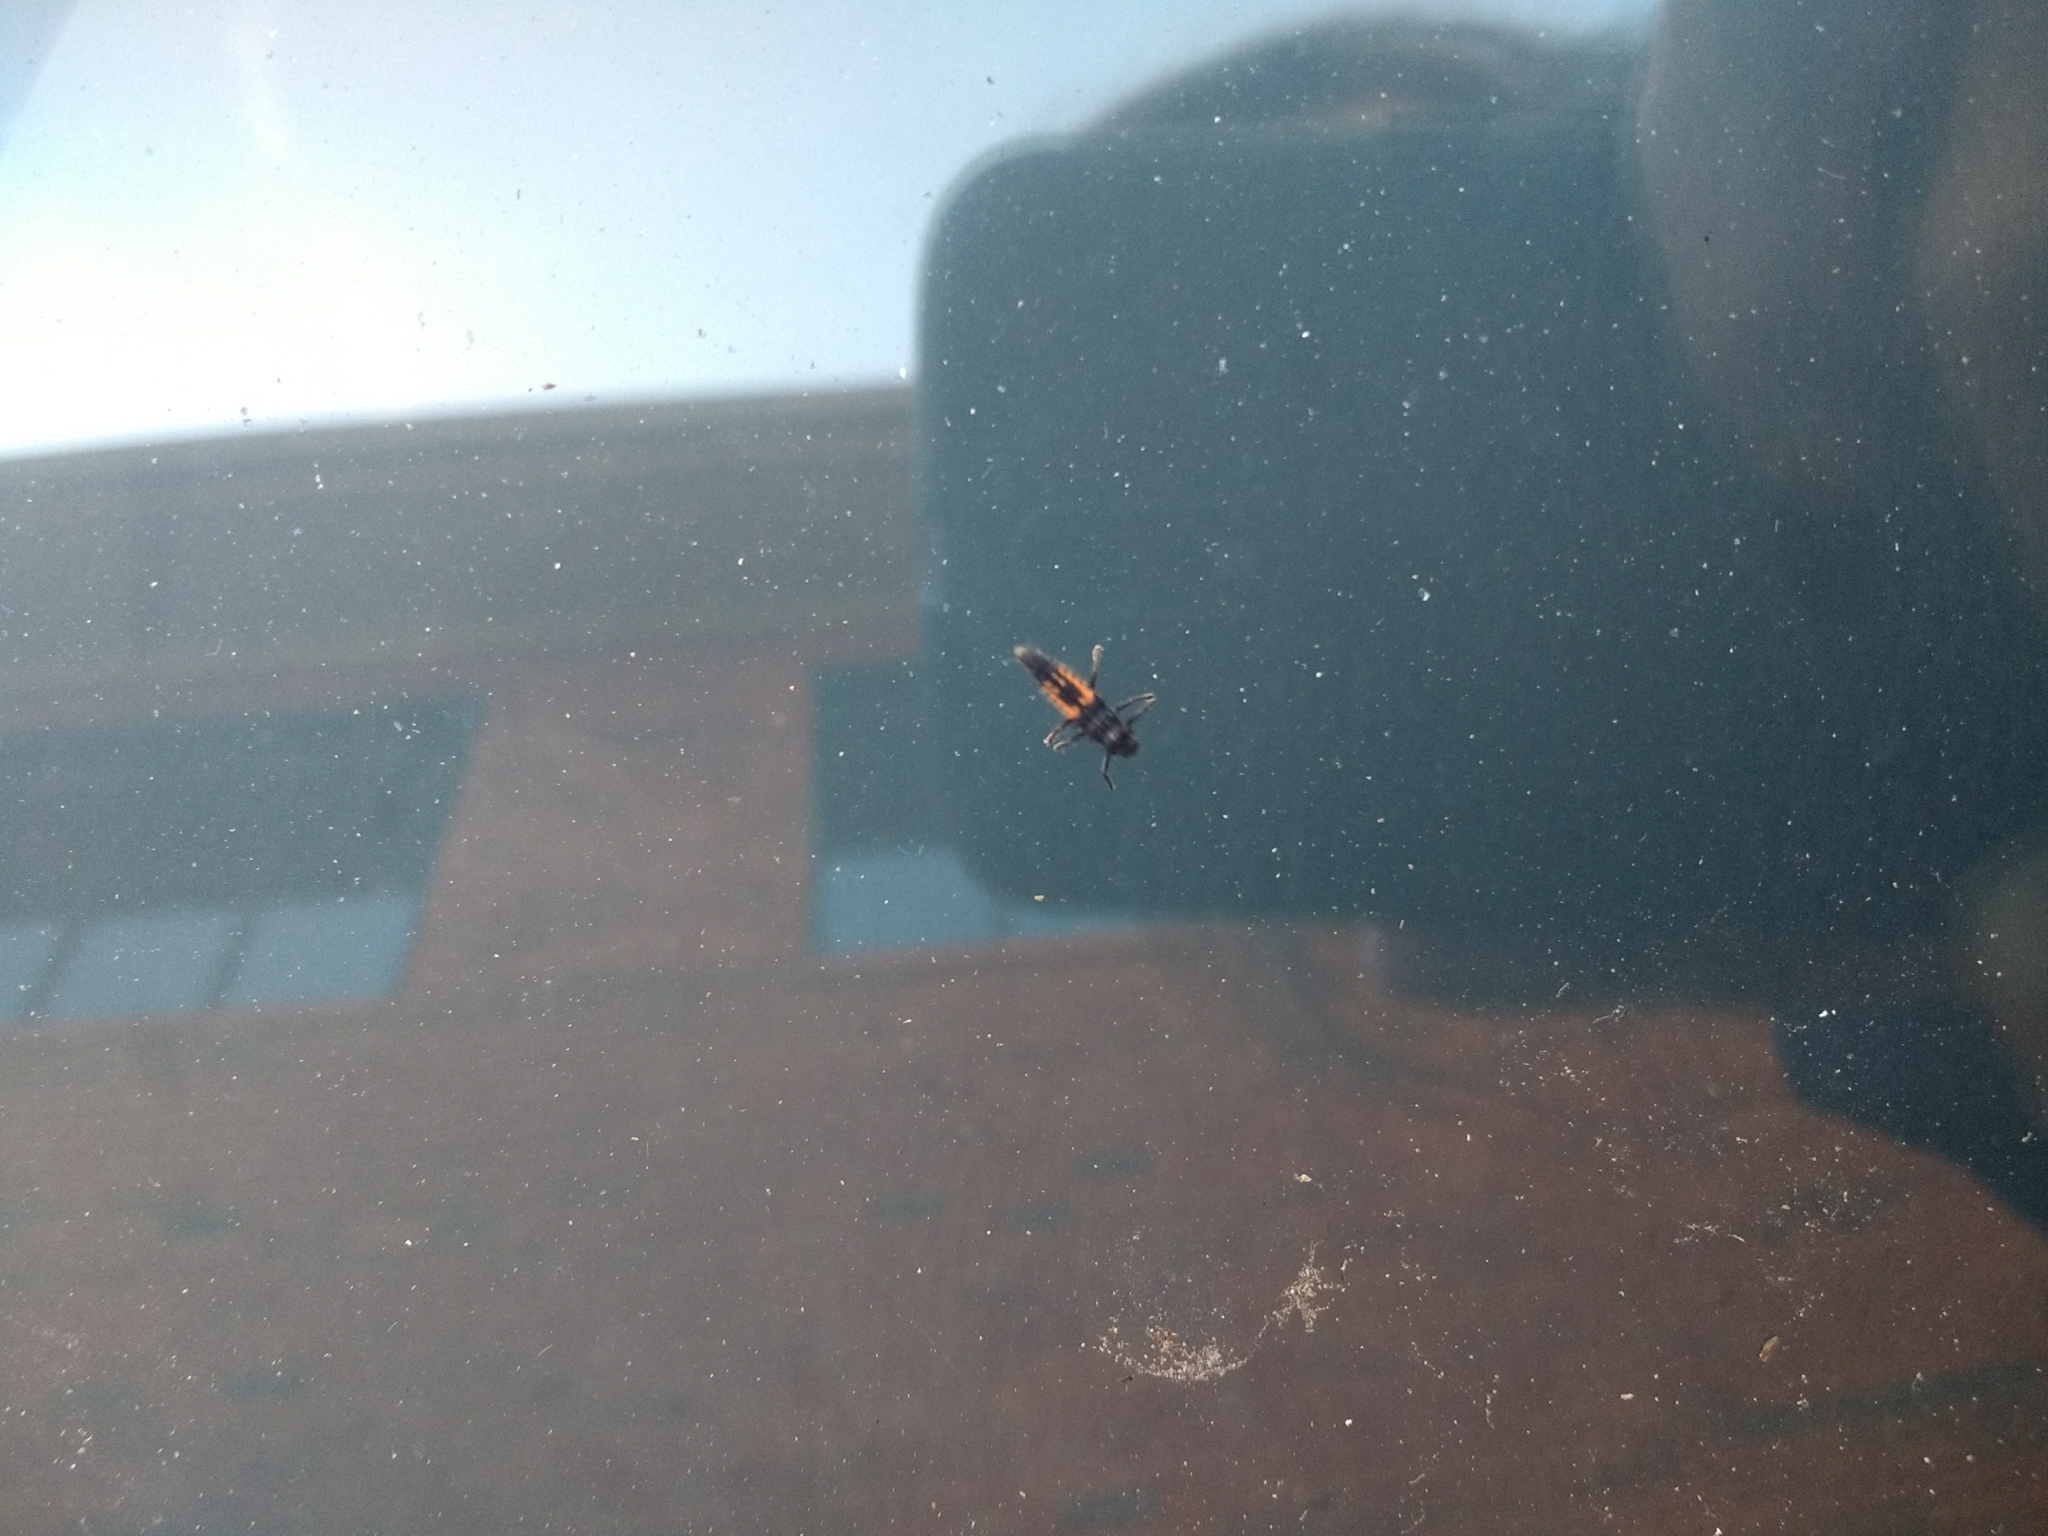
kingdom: Animalia
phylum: Arthropoda
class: Insecta
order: Coleoptera
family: Coccinellidae
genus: Harmonia
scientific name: Harmonia axyridis
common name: Harlequin ladybird
